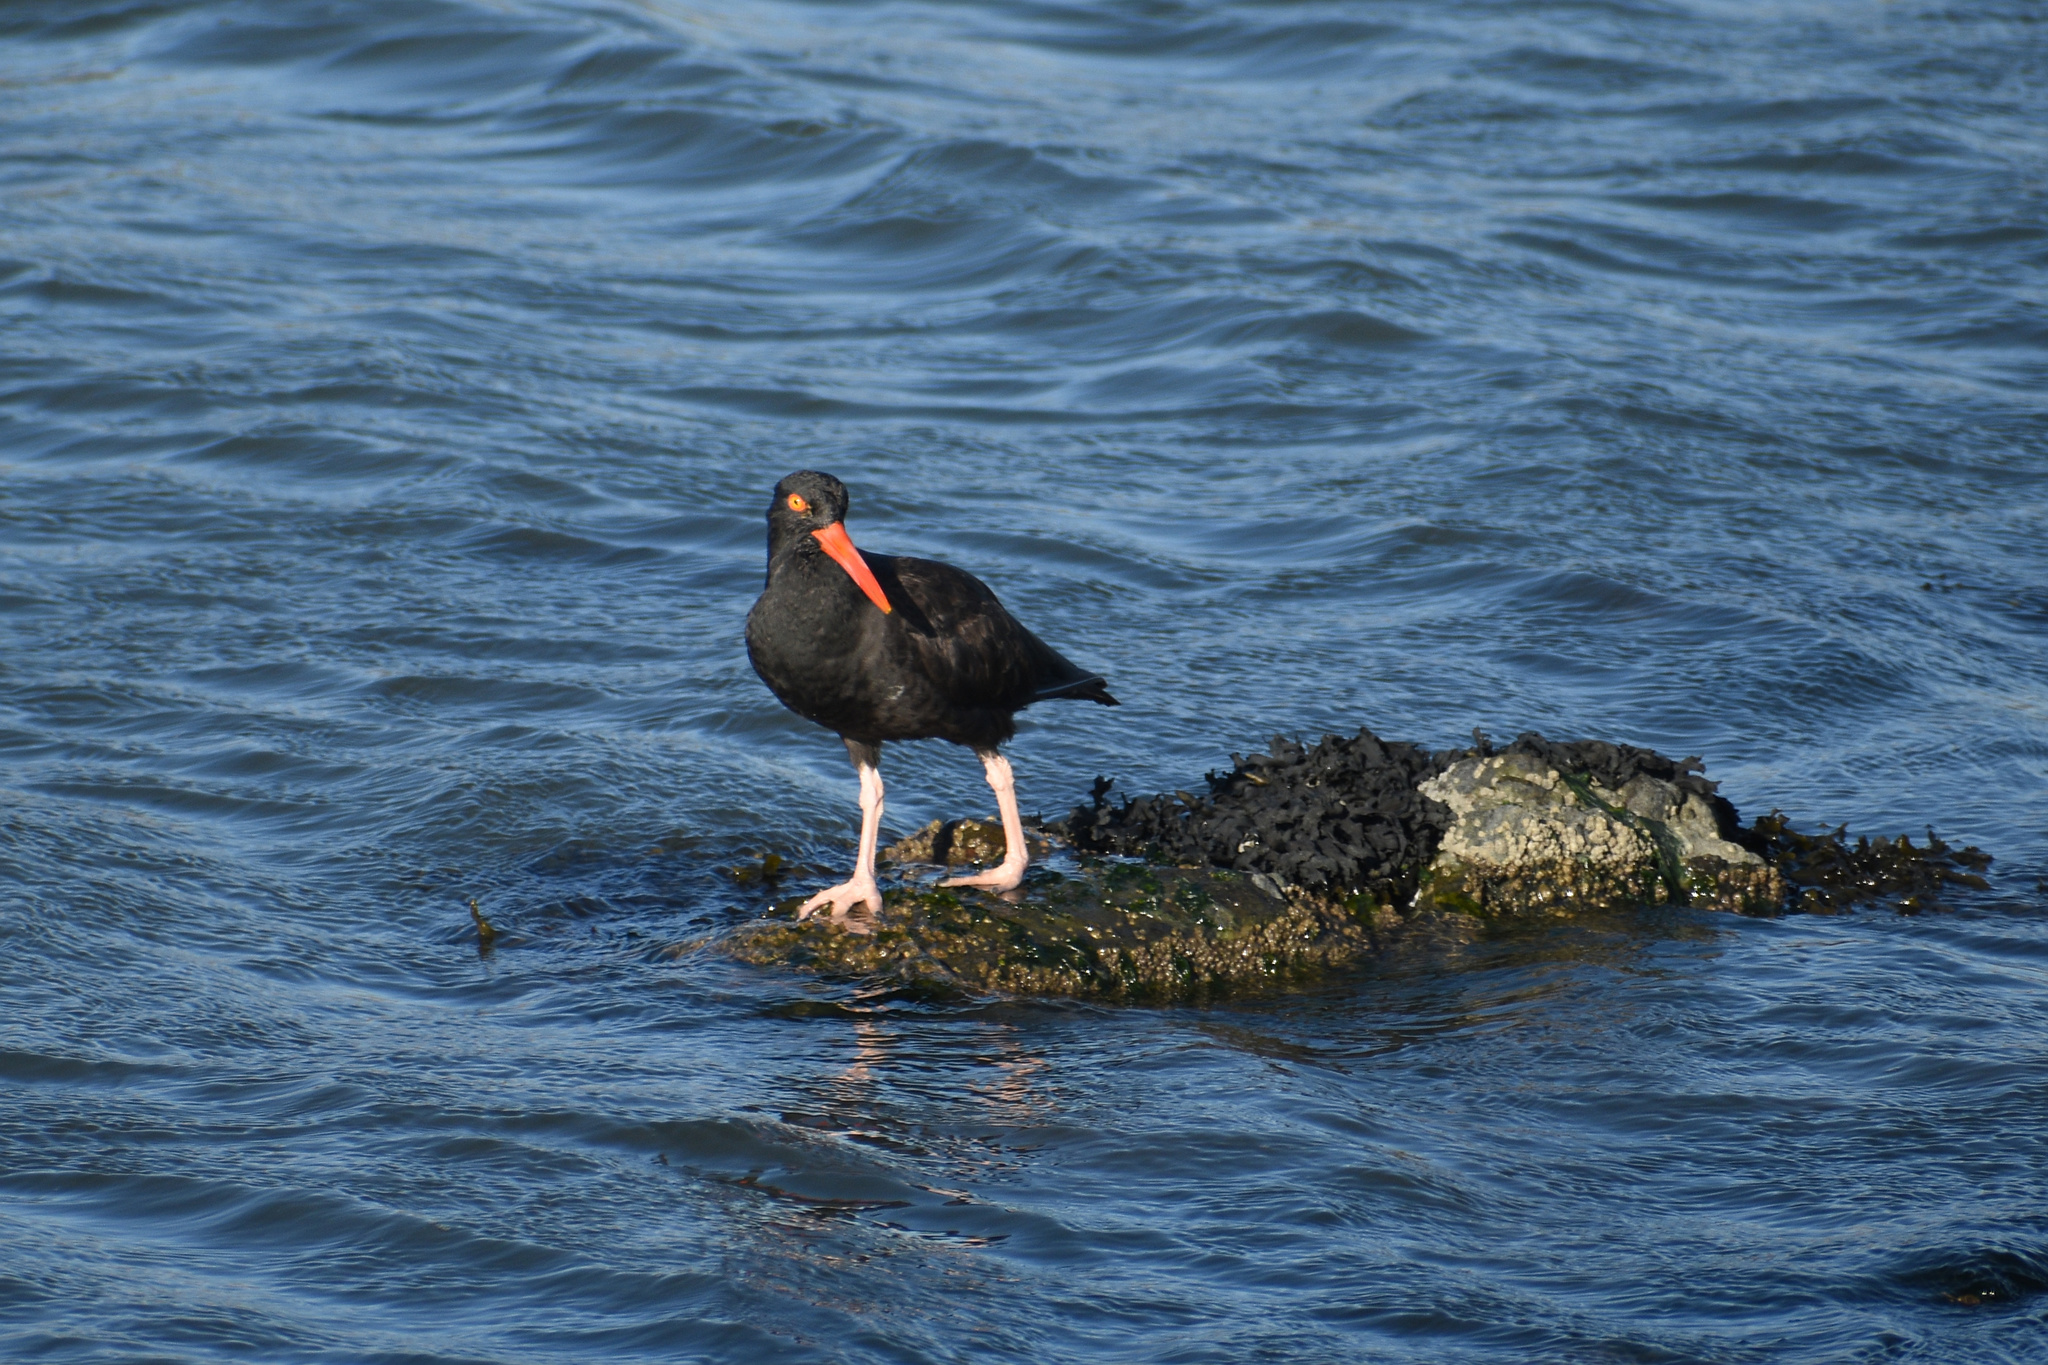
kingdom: Animalia
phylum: Chordata
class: Aves
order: Charadriiformes
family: Haematopodidae
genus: Haematopus
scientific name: Haematopus bachmani
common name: Black oystercatcher
